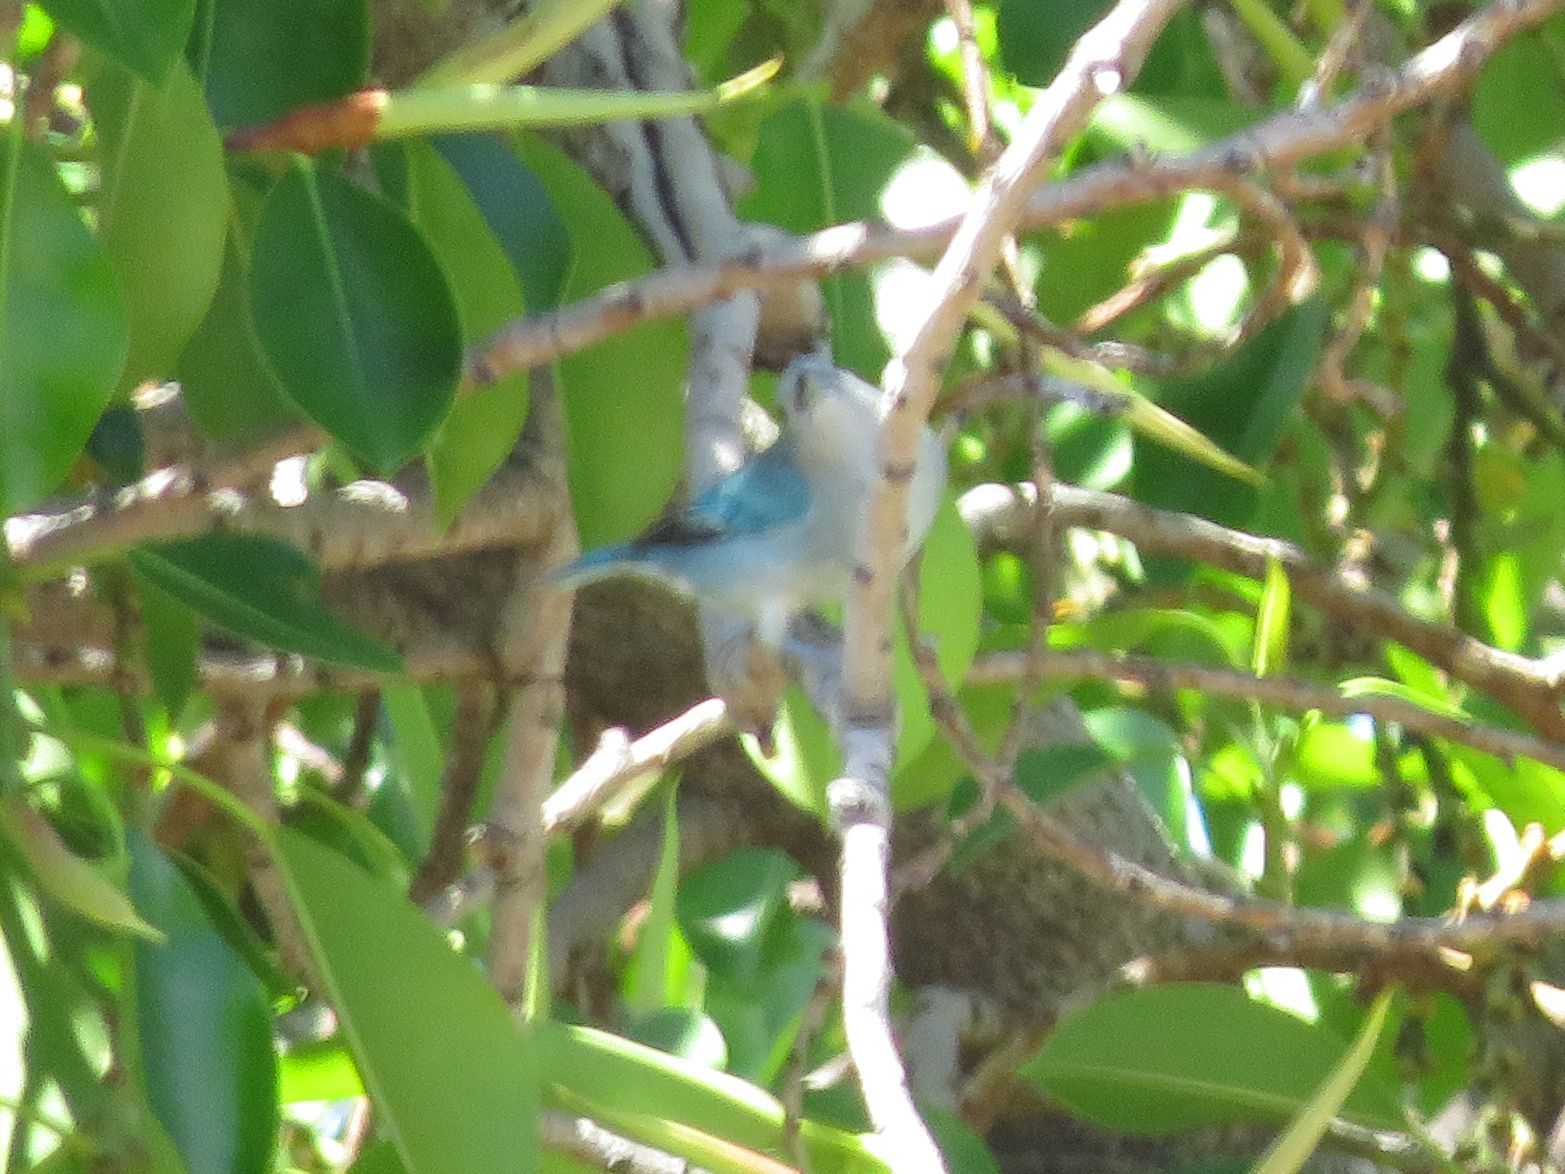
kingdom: Animalia
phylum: Chordata
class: Aves
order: Passeriformes
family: Thraupidae
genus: Thraupis
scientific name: Thraupis sayaca
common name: Sayaca tanager
